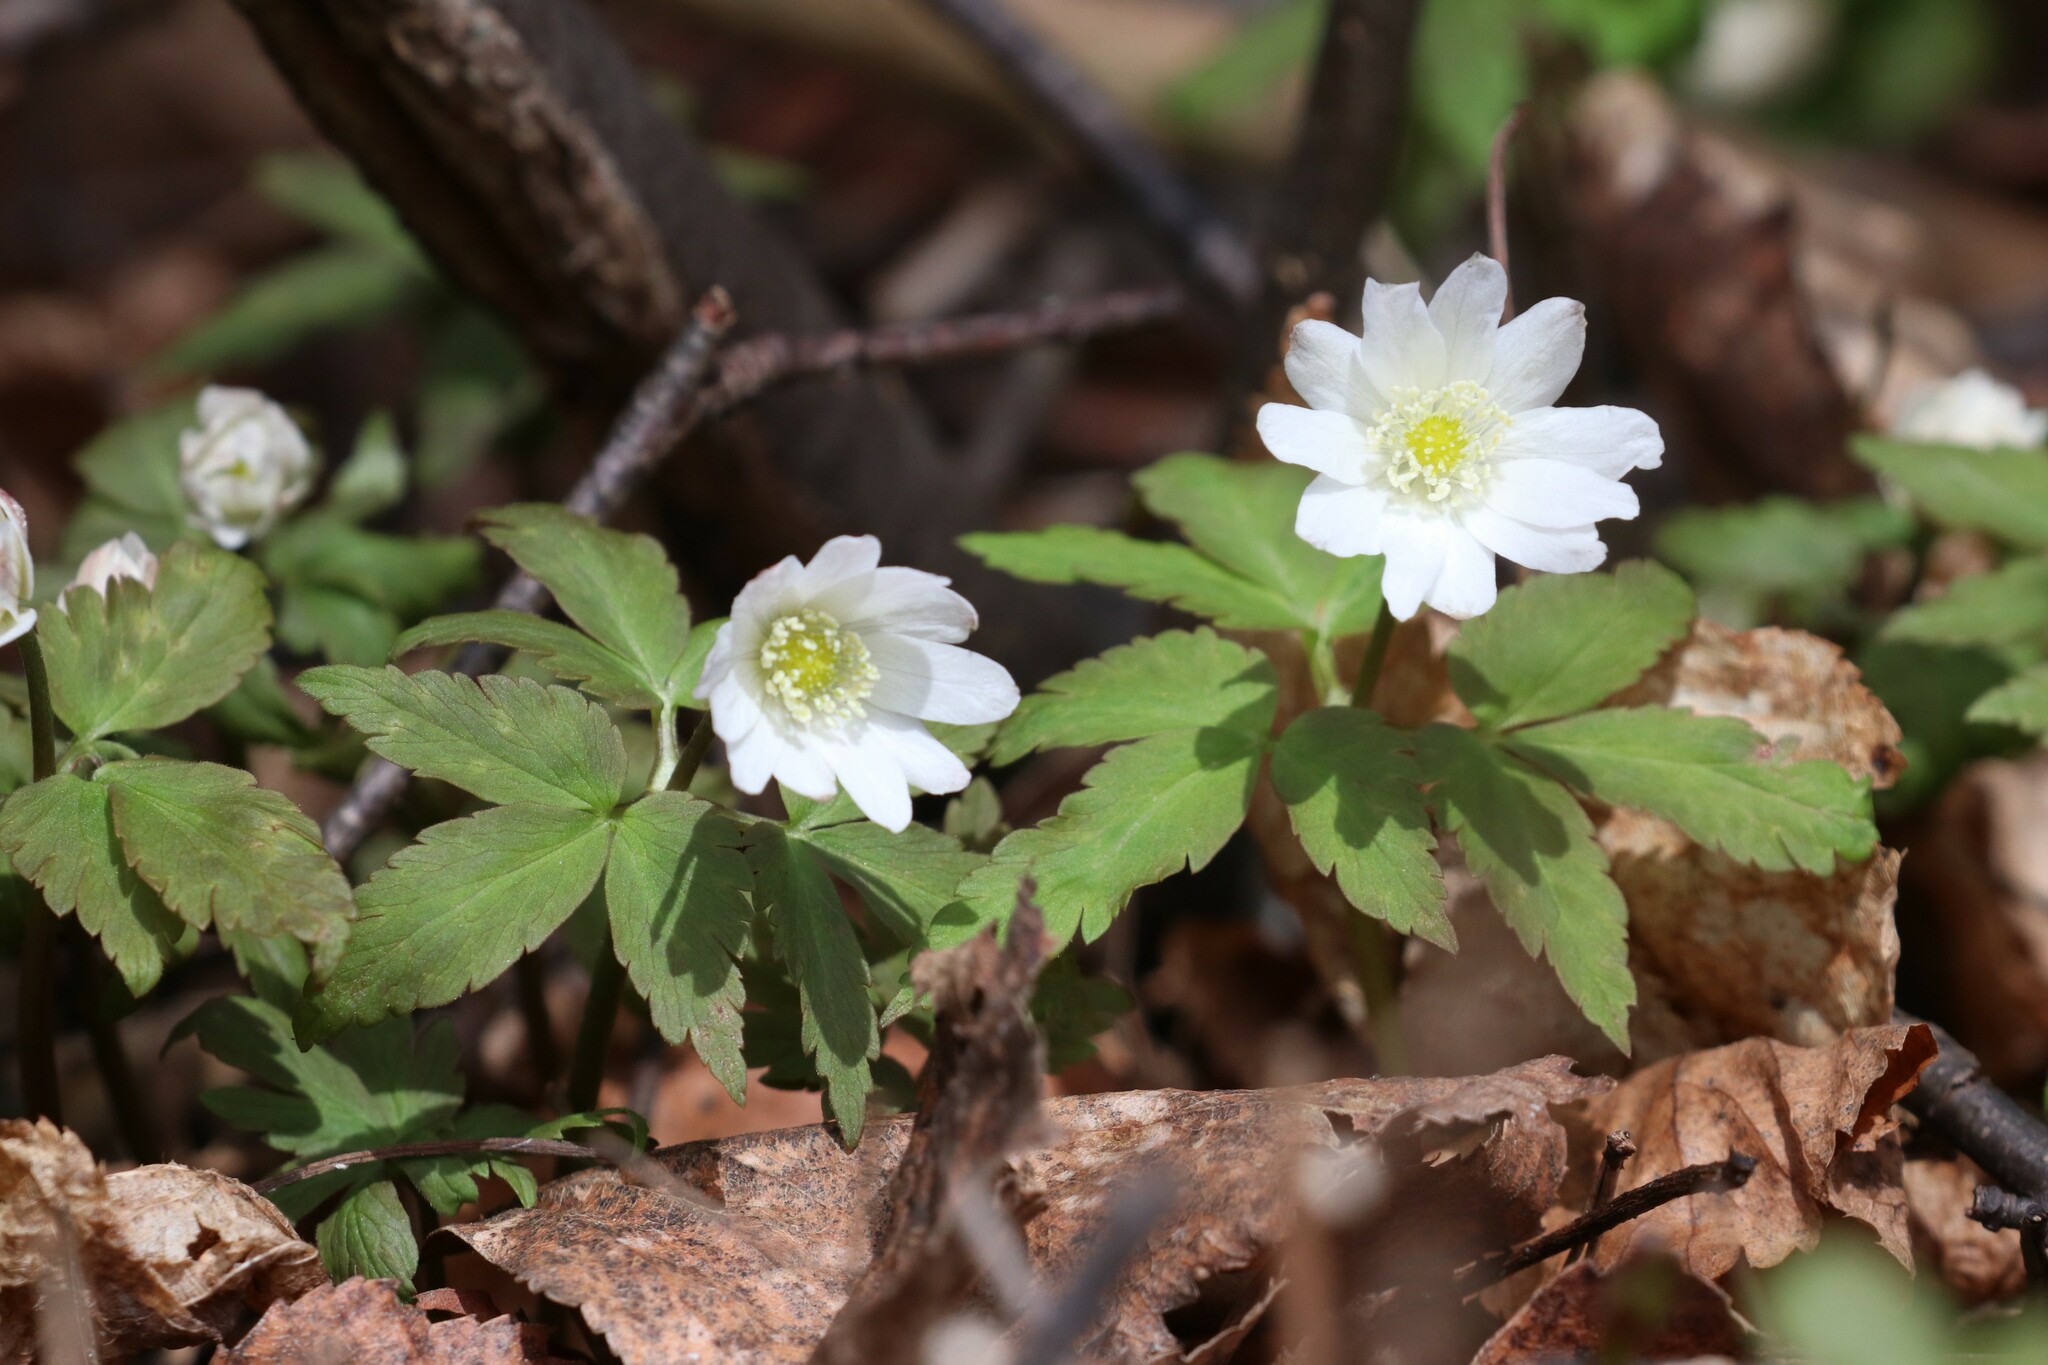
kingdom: Plantae
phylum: Tracheophyta
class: Magnoliopsida
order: Ranunculales
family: Ranunculaceae
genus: Anemone
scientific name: Anemone altaica
